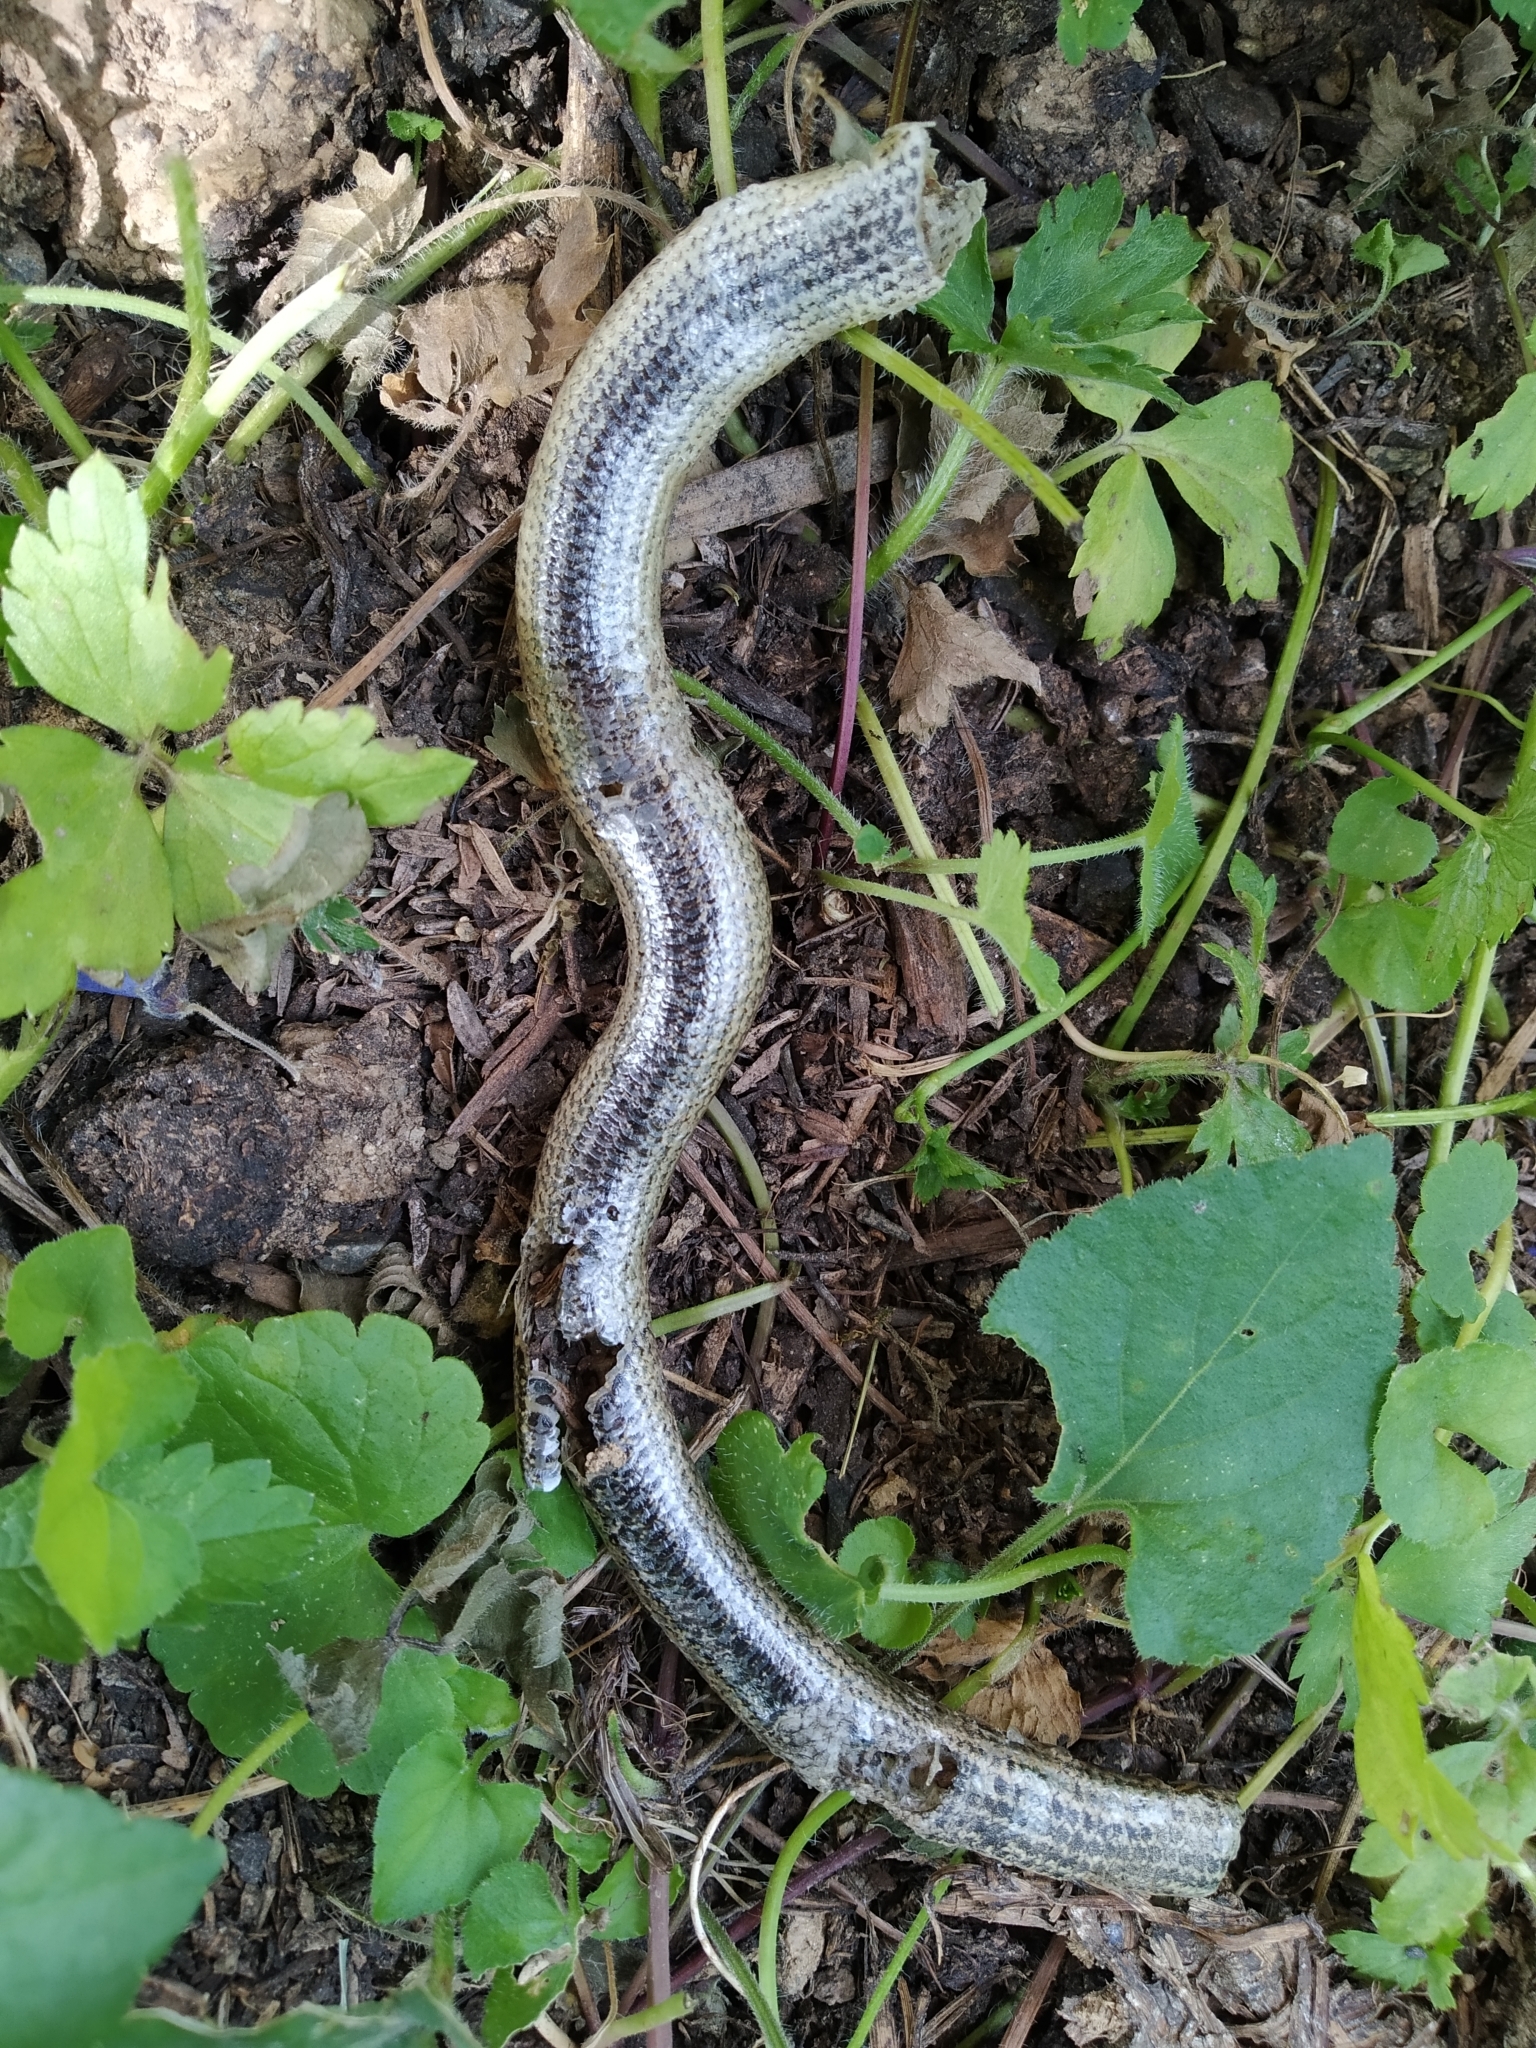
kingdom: Animalia
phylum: Chordata
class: Squamata
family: Anguidae
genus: Anguis
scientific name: Anguis veronensis
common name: Italian slow worm
